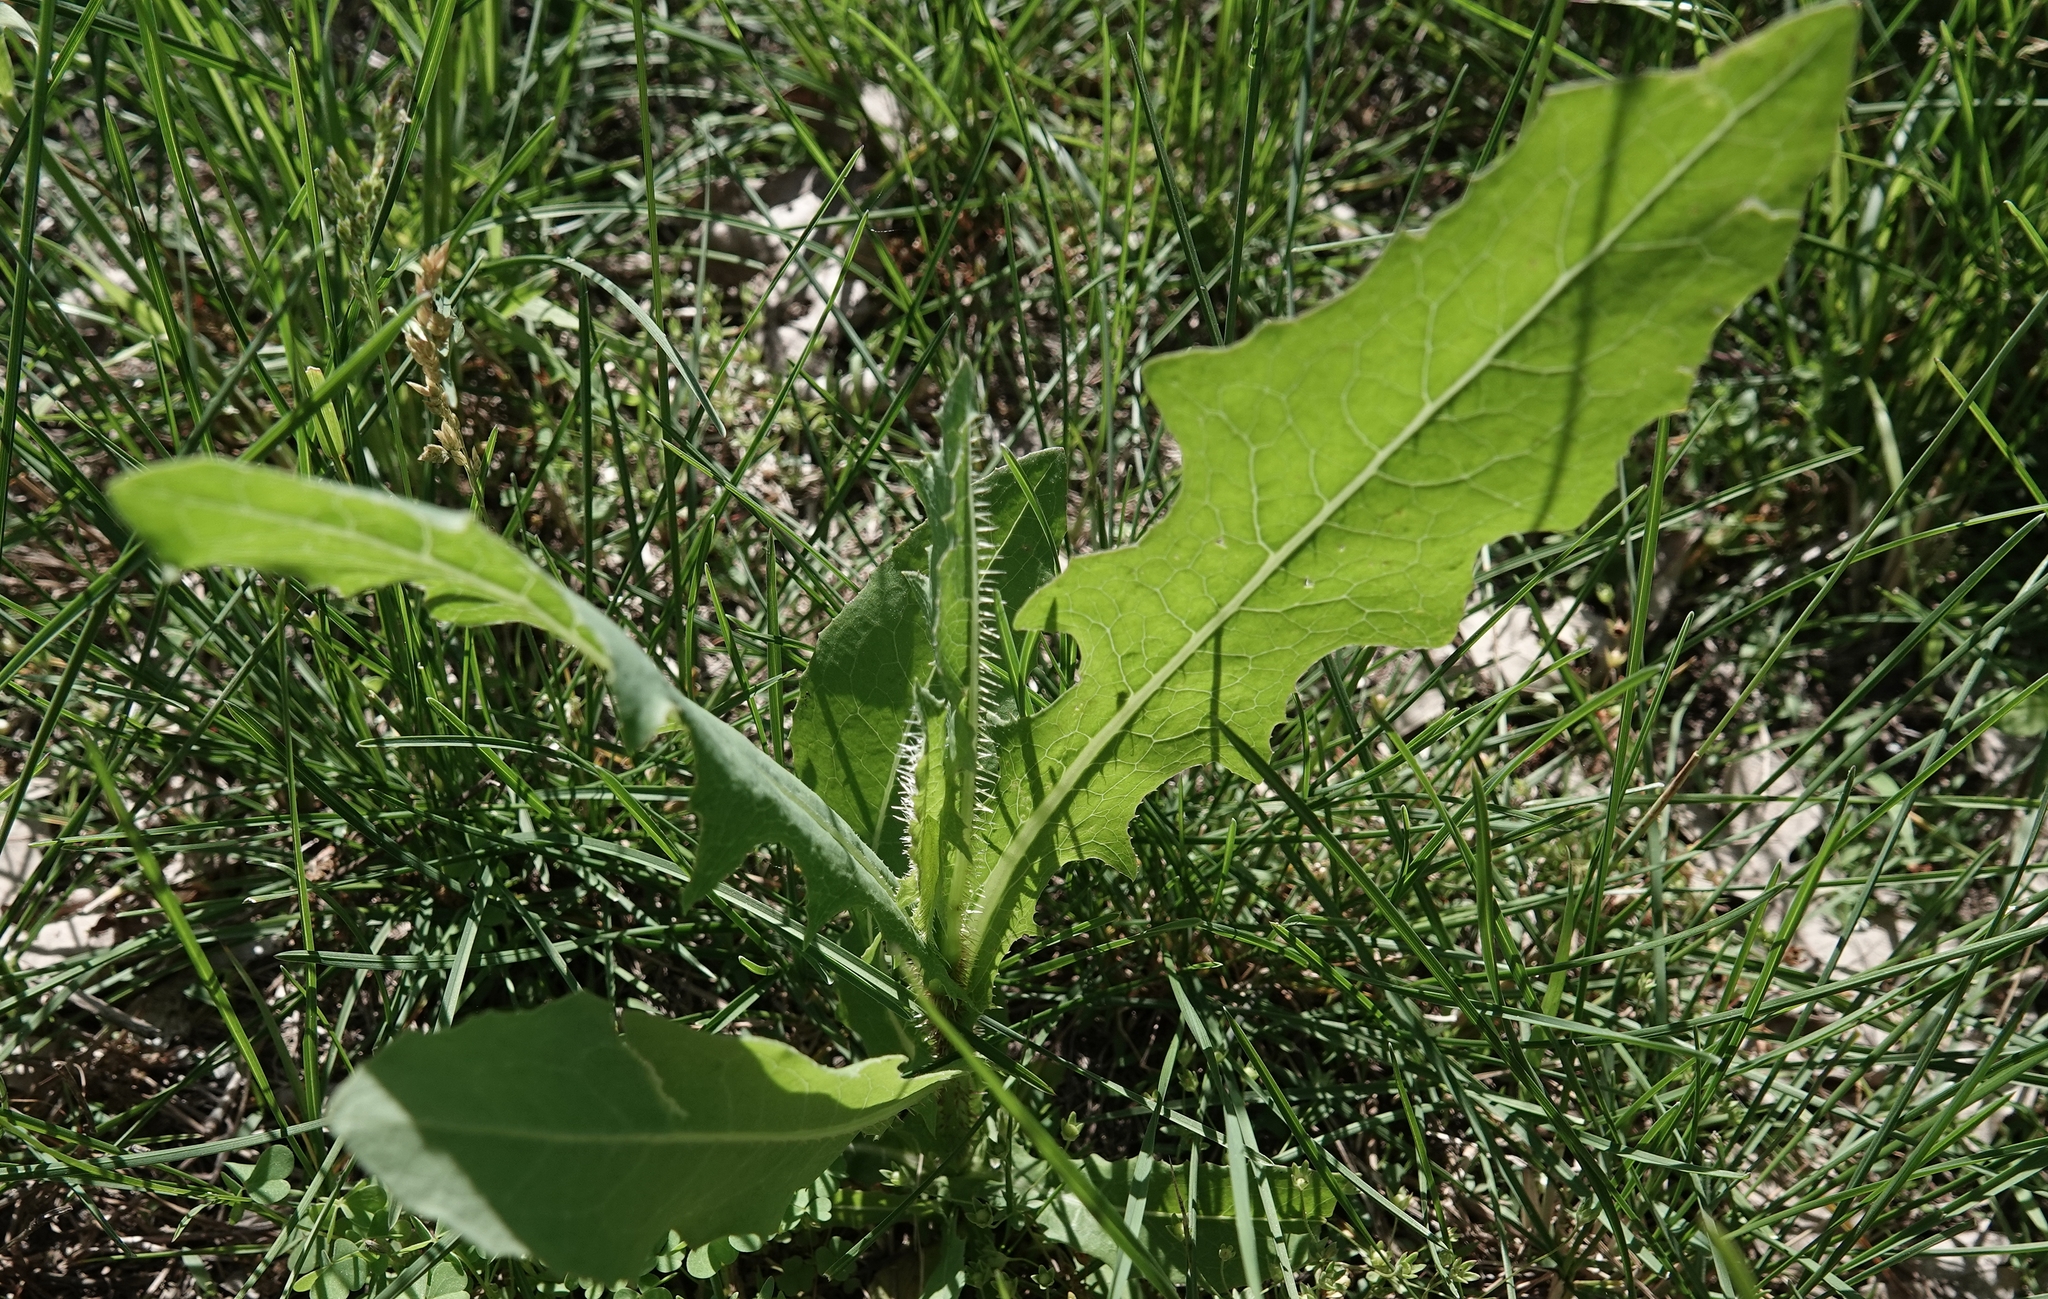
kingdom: Plantae
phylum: Tracheophyta
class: Magnoliopsida
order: Asterales
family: Asteraceae
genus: Lactuca
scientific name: Lactuca serriola
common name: Prickly lettuce
